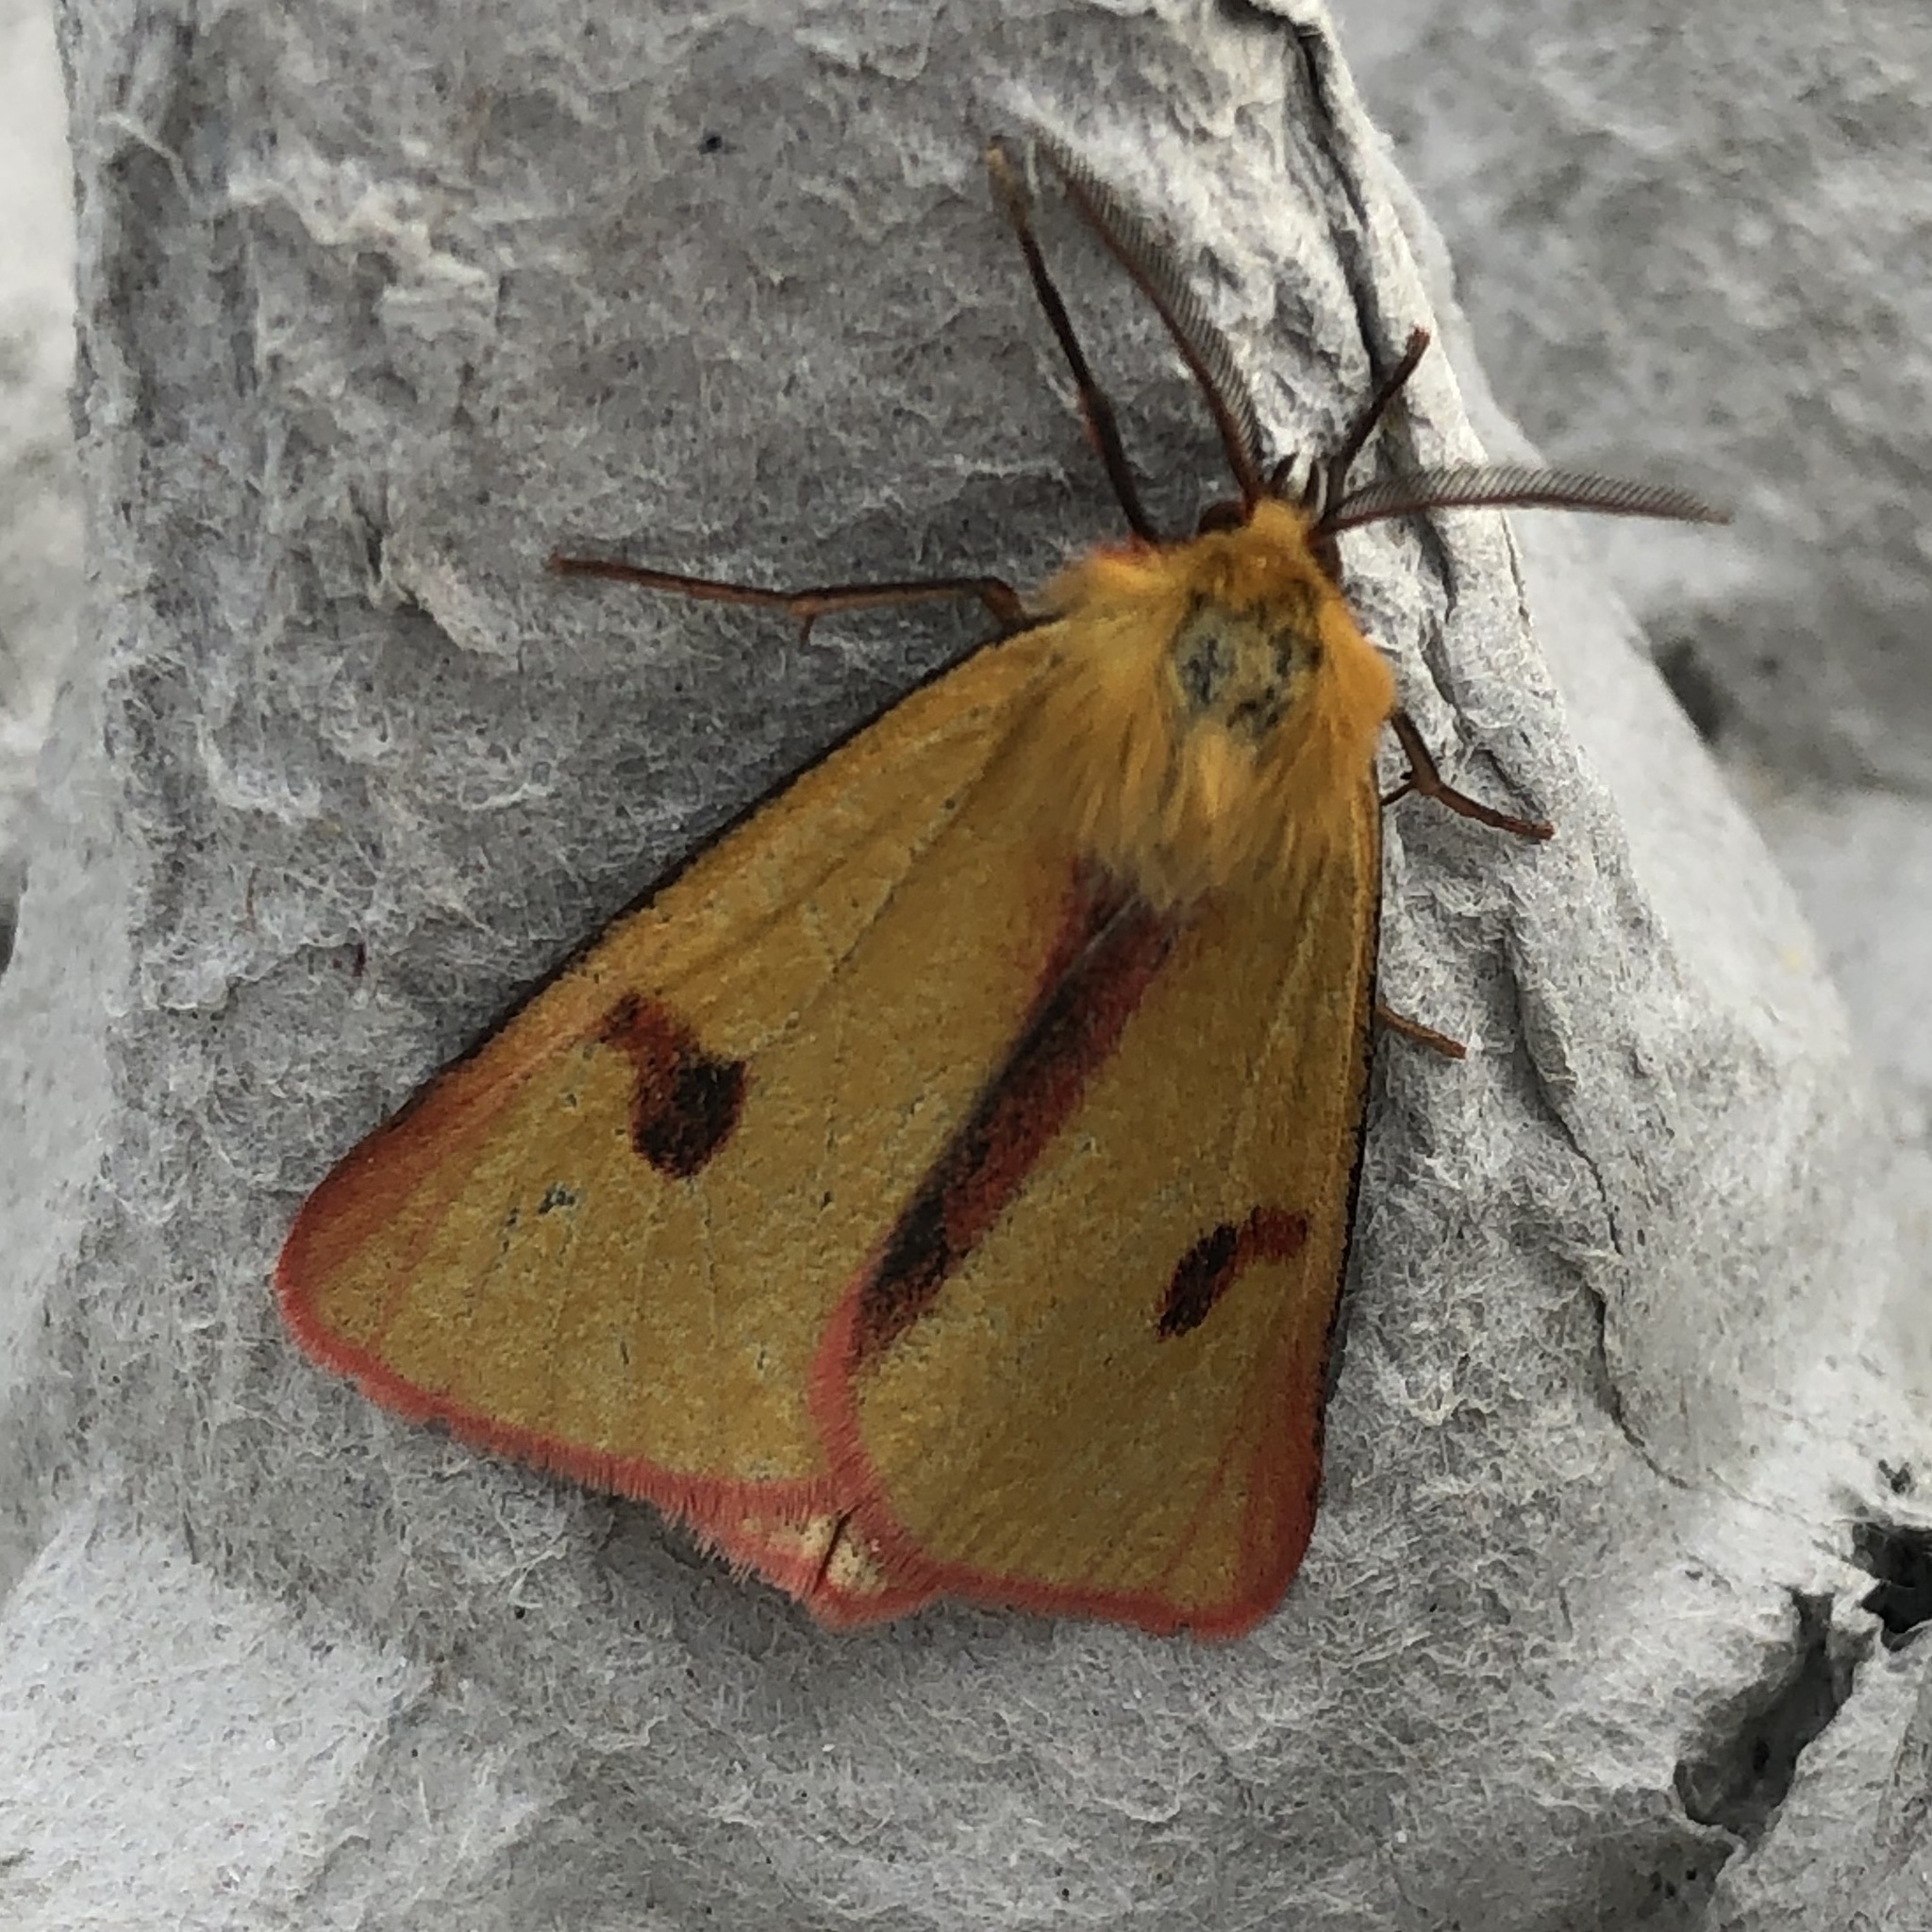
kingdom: Animalia
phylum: Arthropoda
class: Insecta
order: Lepidoptera
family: Erebidae
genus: Diacrisia
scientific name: Diacrisia sannio
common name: Clouded buff
